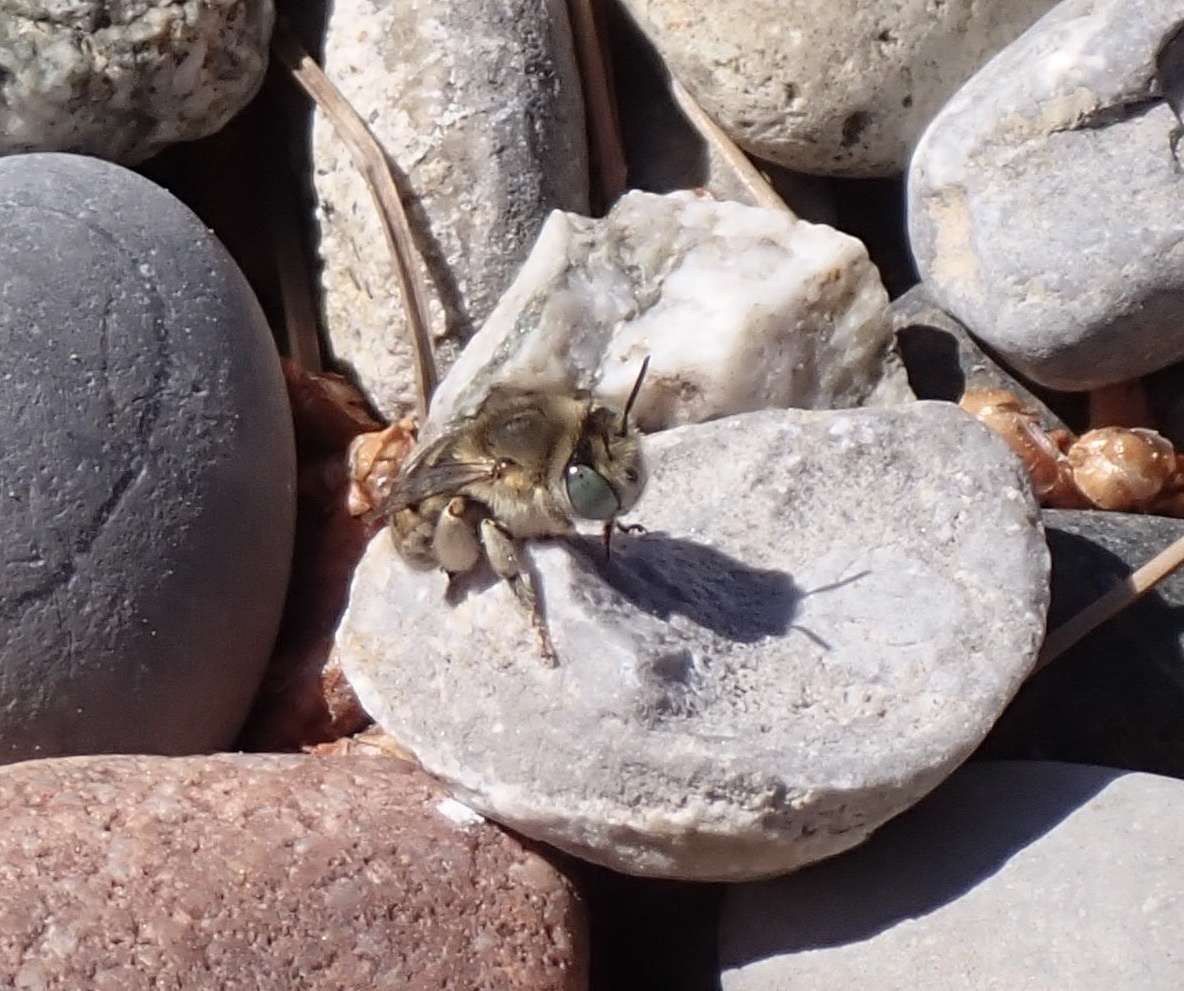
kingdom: Animalia
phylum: Arthropoda
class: Insecta
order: Hymenoptera
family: Apidae
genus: Anthophora
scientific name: Anthophora bimaculata
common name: Green-eyed flower bee
